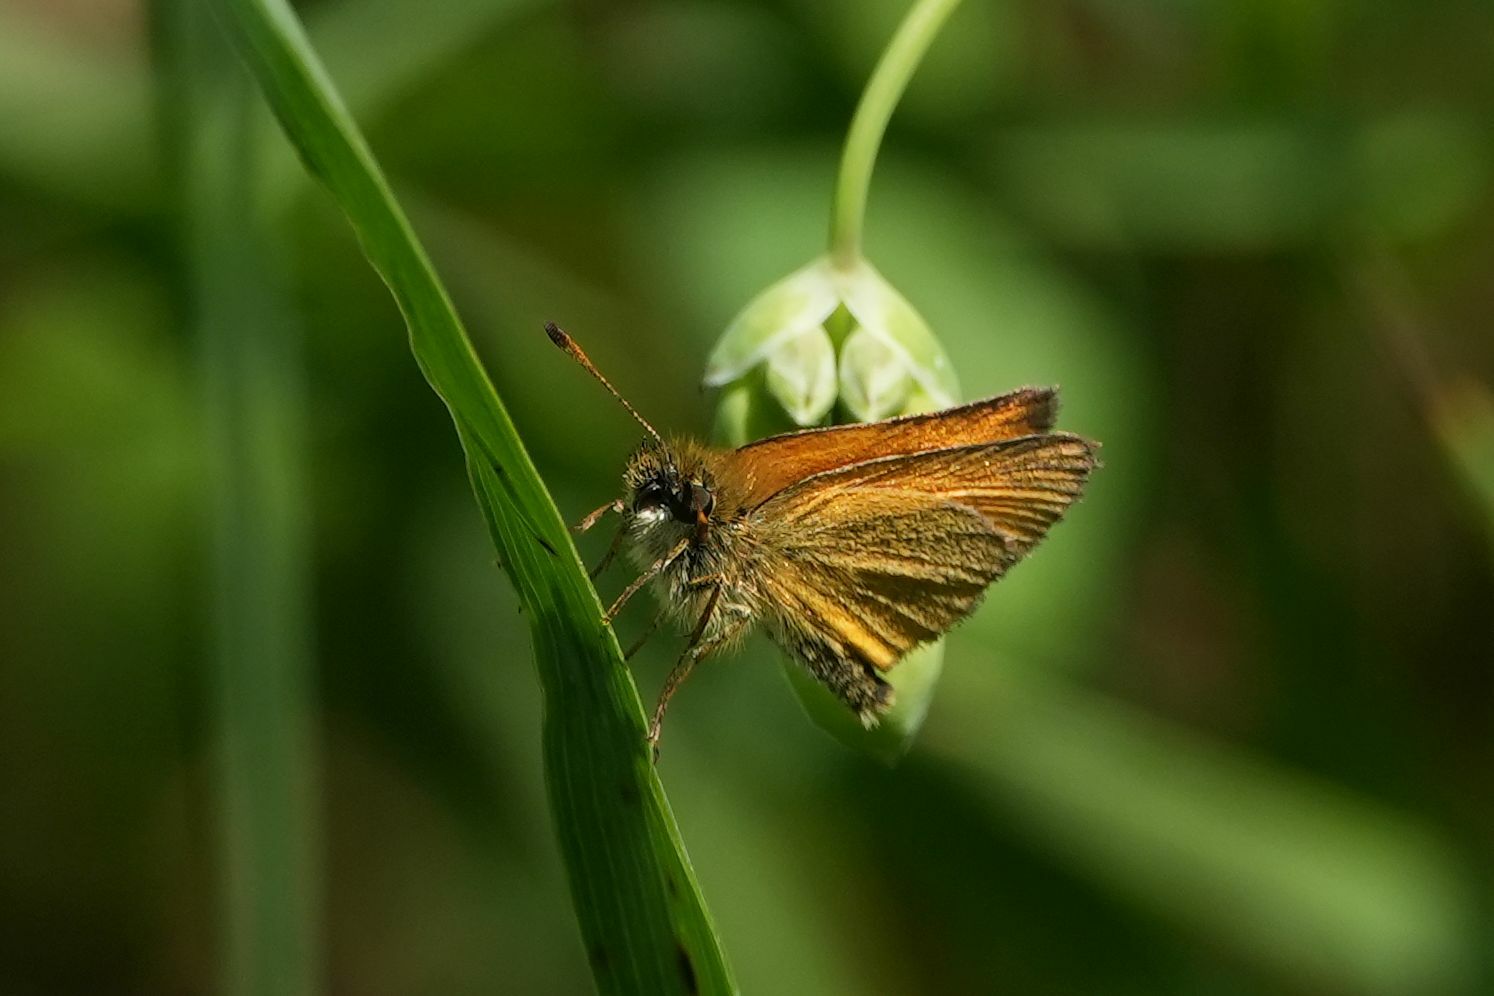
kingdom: Animalia
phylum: Arthropoda
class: Insecta
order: Lepidoptera
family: Hesperiidae
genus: Thymelicus
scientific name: Thymelicus lineola
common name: Essex skipper
